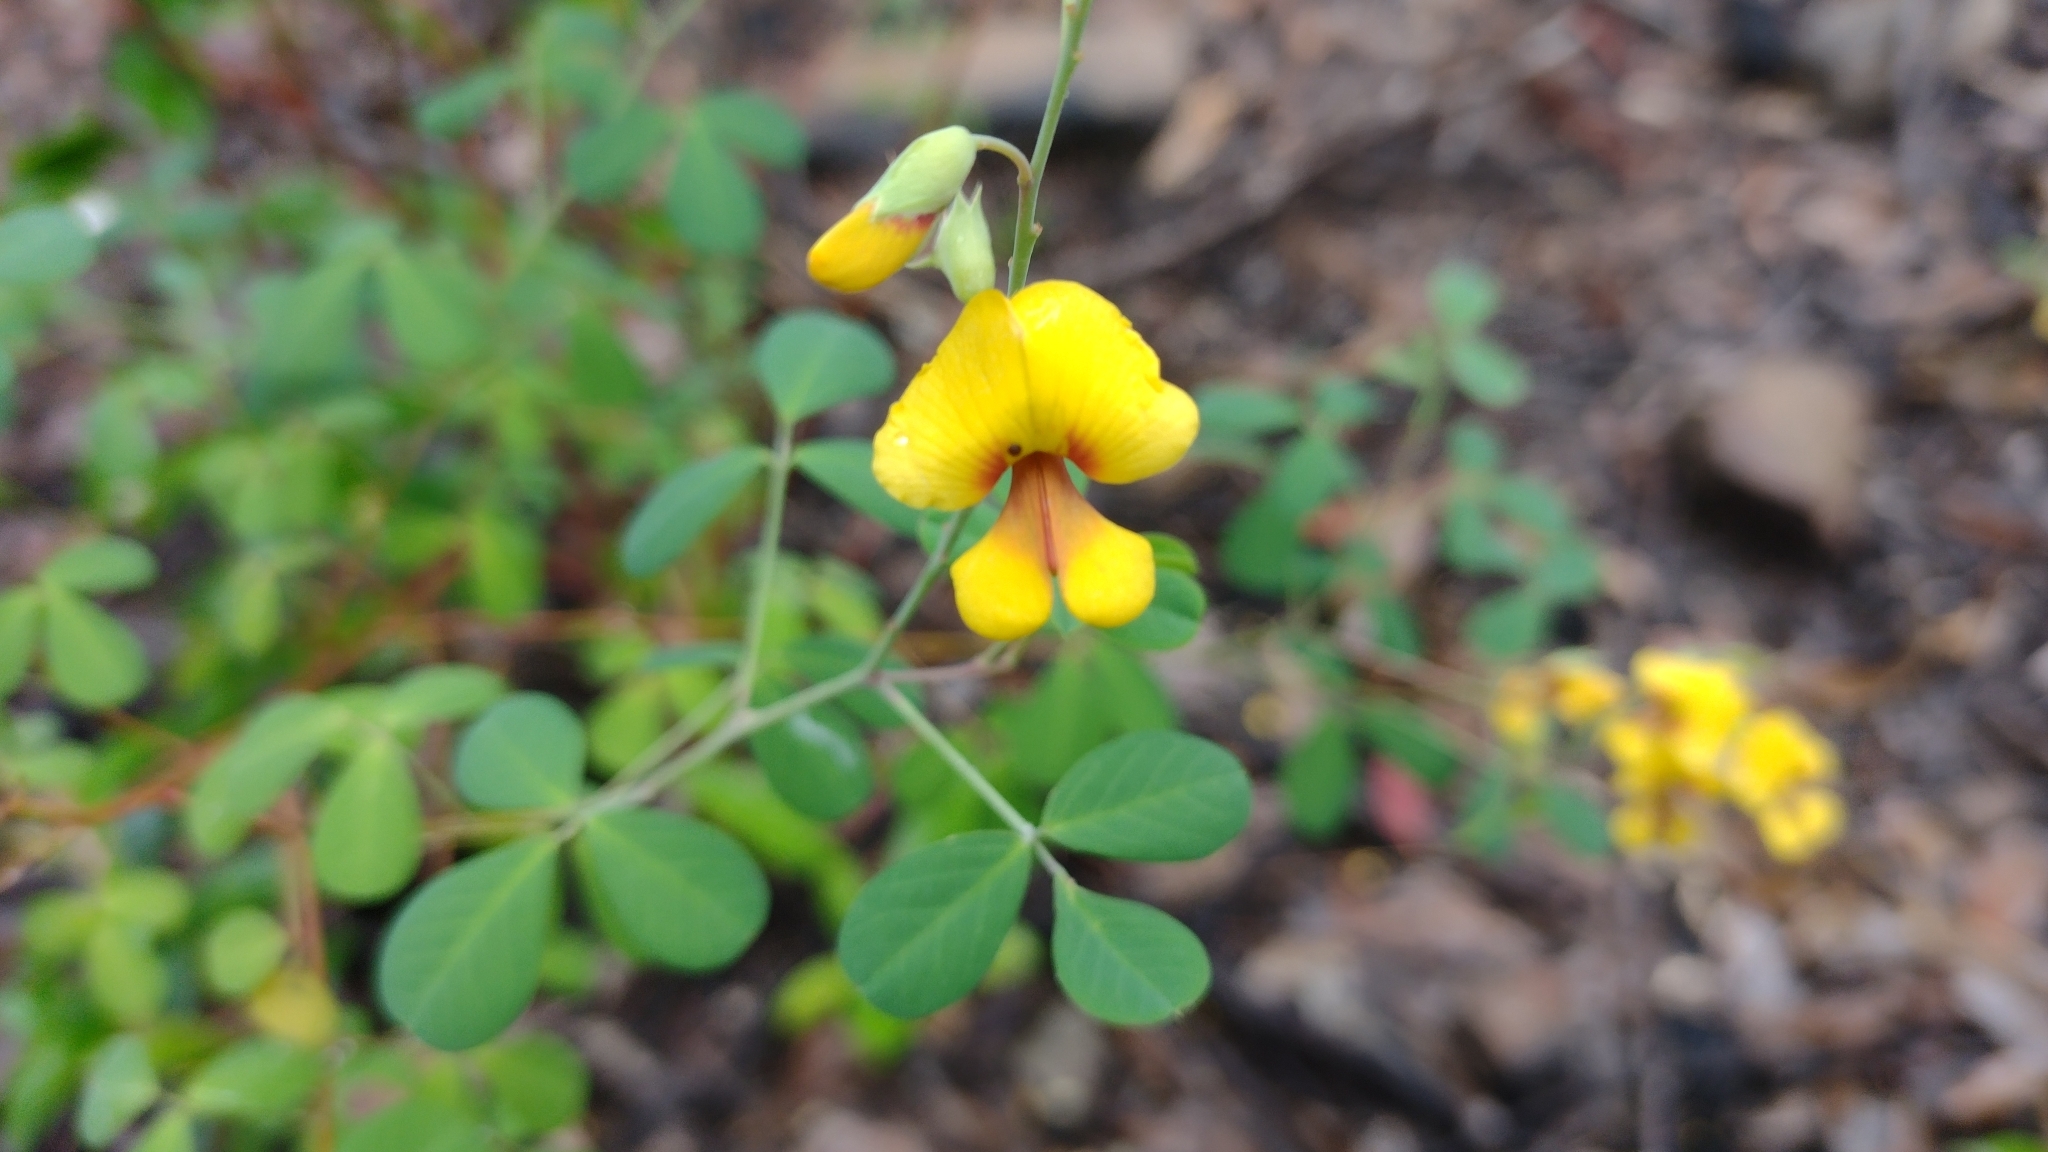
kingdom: Plantae
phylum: Tracheophyta
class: Magnoliopsida
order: Fabales
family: Fabaceae
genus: Goodia
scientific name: Goodia lotifolia
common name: Cloverleaf-poison
